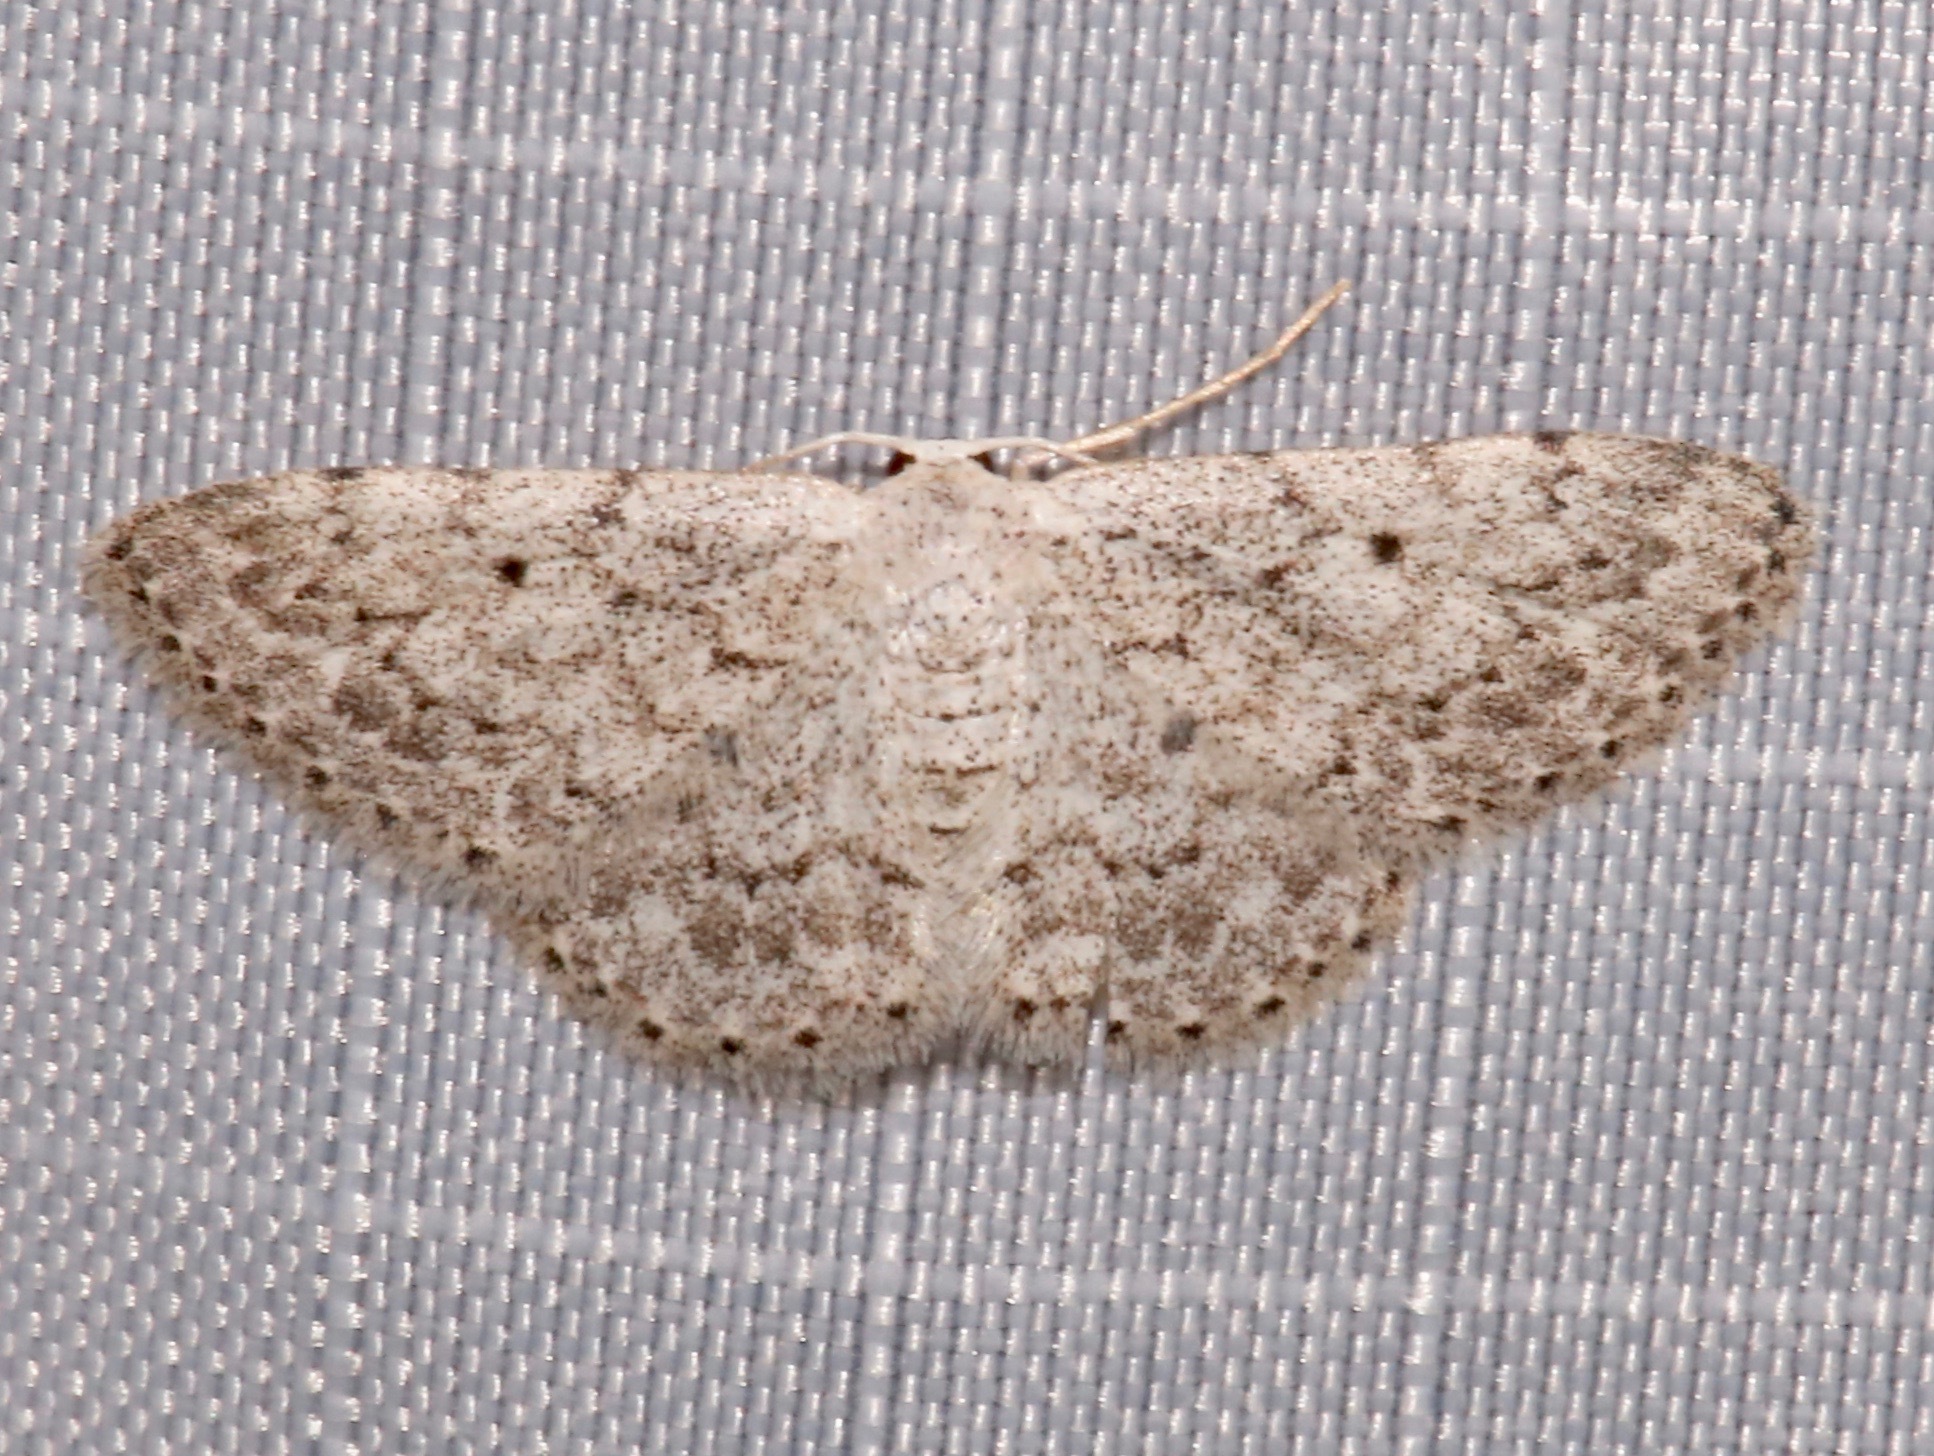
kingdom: Animalia
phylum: Arthropoda
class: Insecta
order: Lepidoptera
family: Geometridae
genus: Idaea
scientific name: Idaea ostentaria
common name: Showy wave moth
